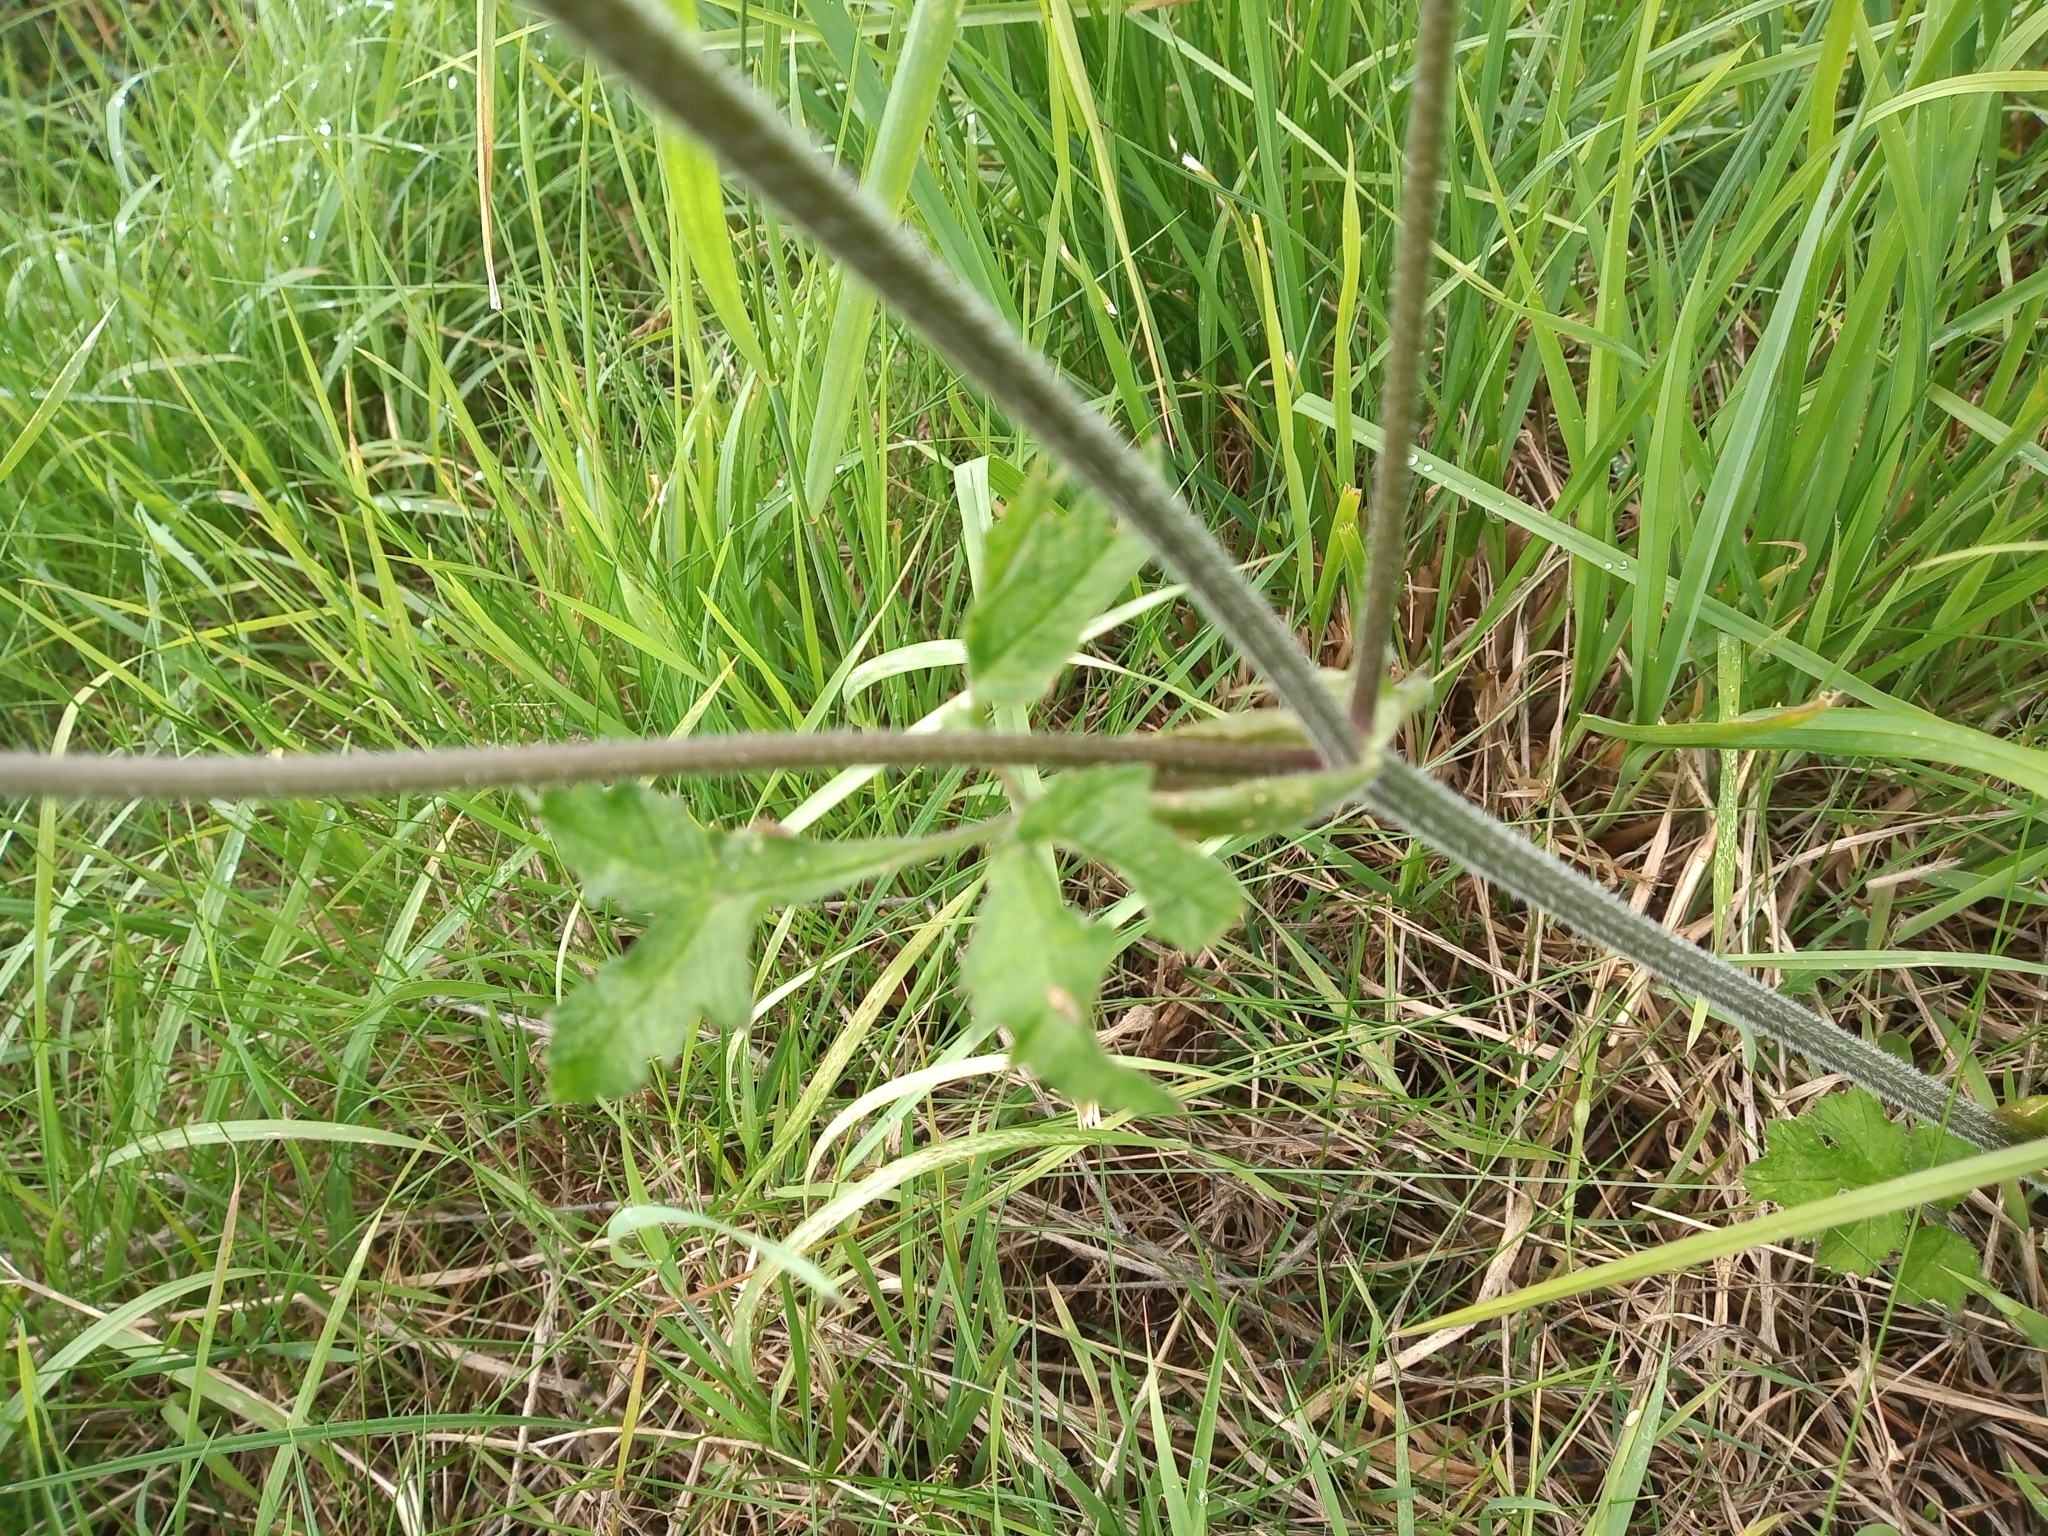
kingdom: Plantae
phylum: Tracheophyta
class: Magnoliopsida
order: Apiales
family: Apiaceae
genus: Heracleum
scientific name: Heracleum sphondylium
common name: Hogweed
